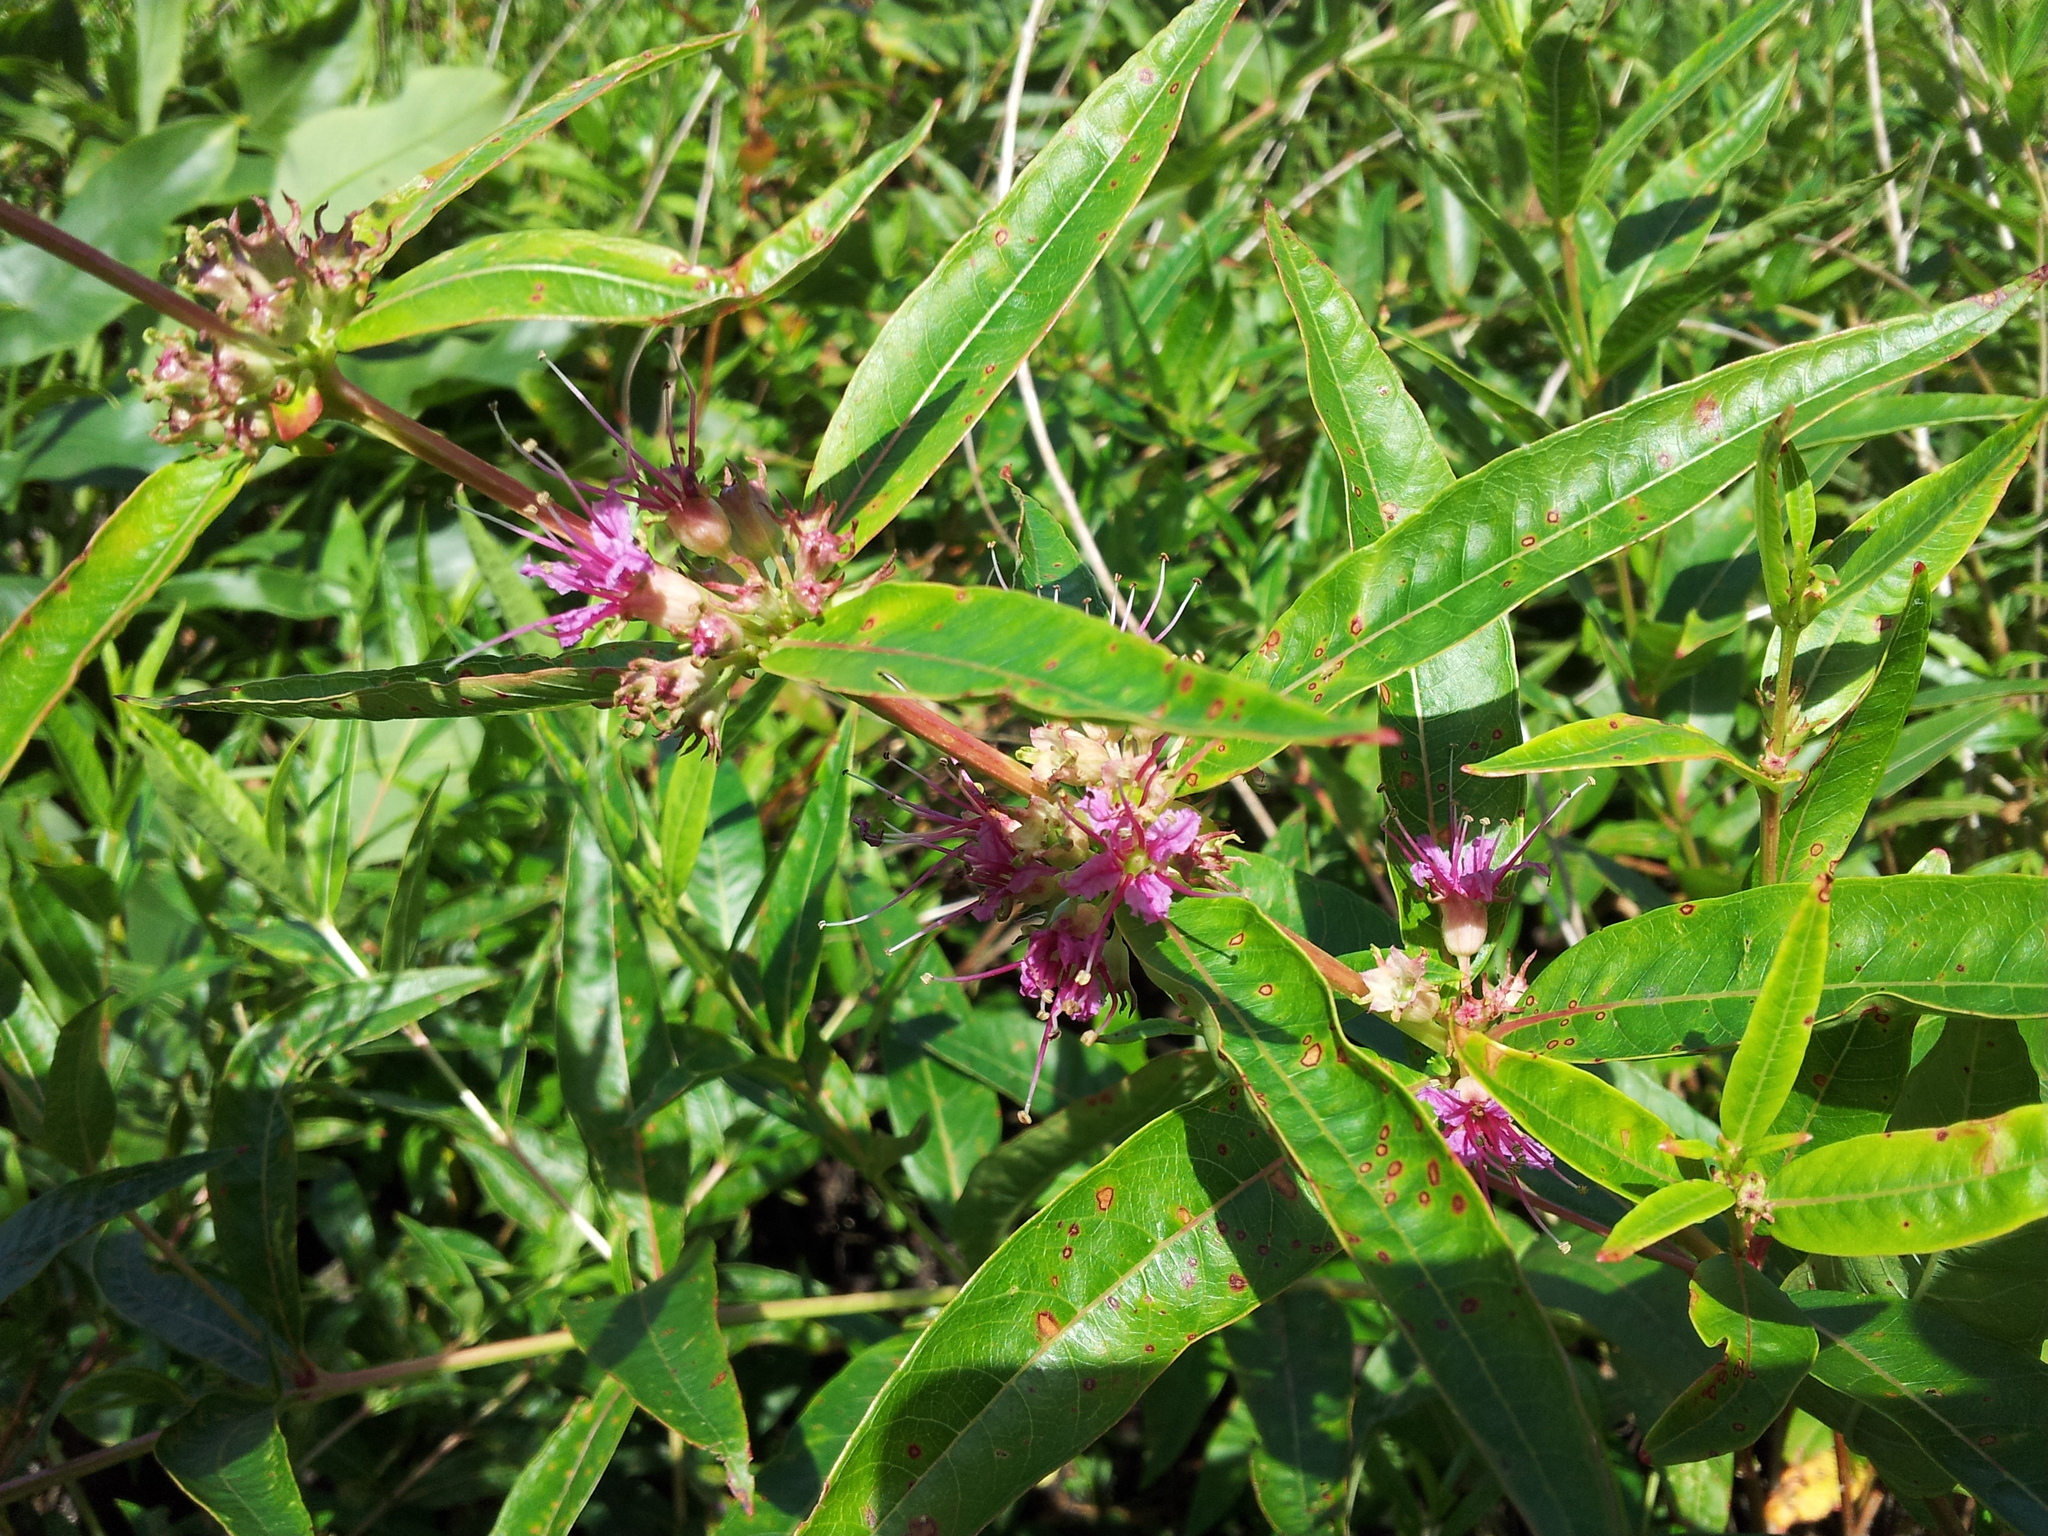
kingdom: Plantae
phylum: Tracheophyta
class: Magnoliopsida
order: Myrtales
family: Lythraceae
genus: Decodon
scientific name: Decodon verticillatus
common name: Hairy swamp loosestrife
